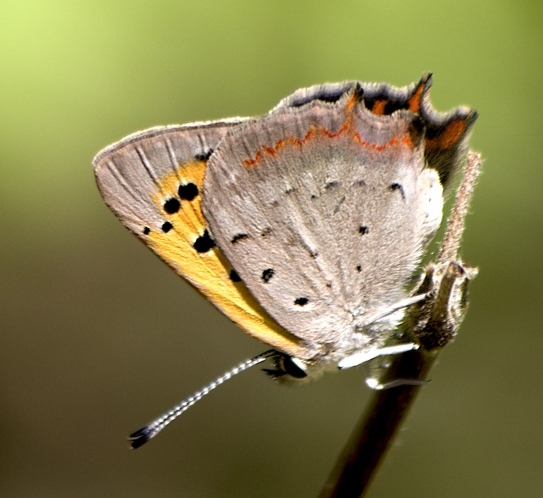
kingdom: Animalia
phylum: Arthropoda
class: Insecta
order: Lepidoptera
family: Lycaenidae
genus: Lycaena
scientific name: Lycaena phlaeas
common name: Small copper
